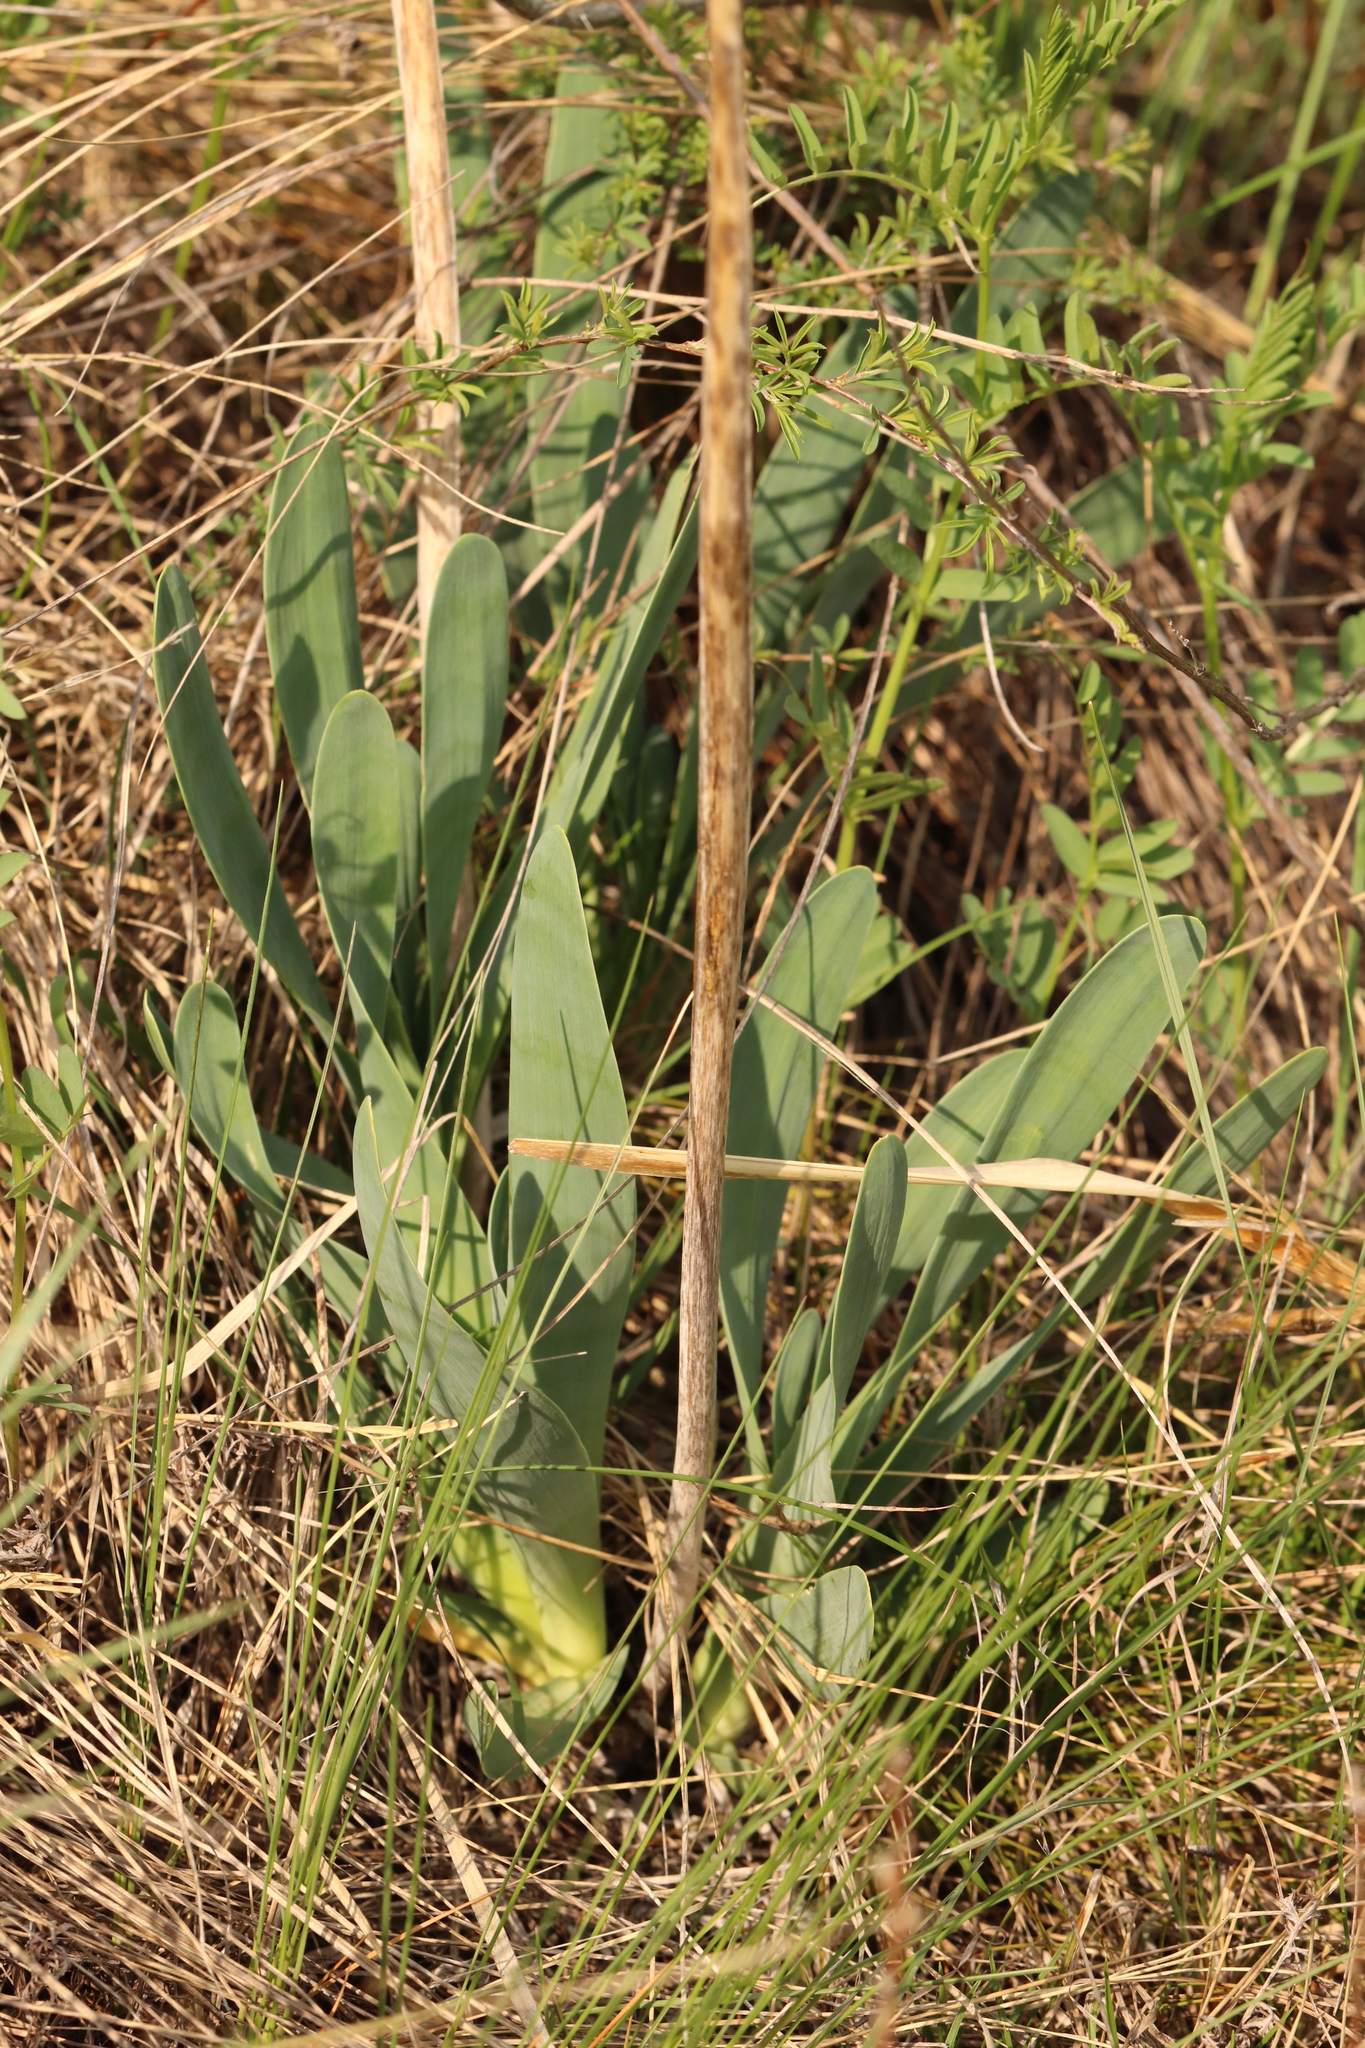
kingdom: Plantae
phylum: Tracheophyta
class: Liliopsida
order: Asparagales
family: Amaryllidaceae
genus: Allium
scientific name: Allium nutans
